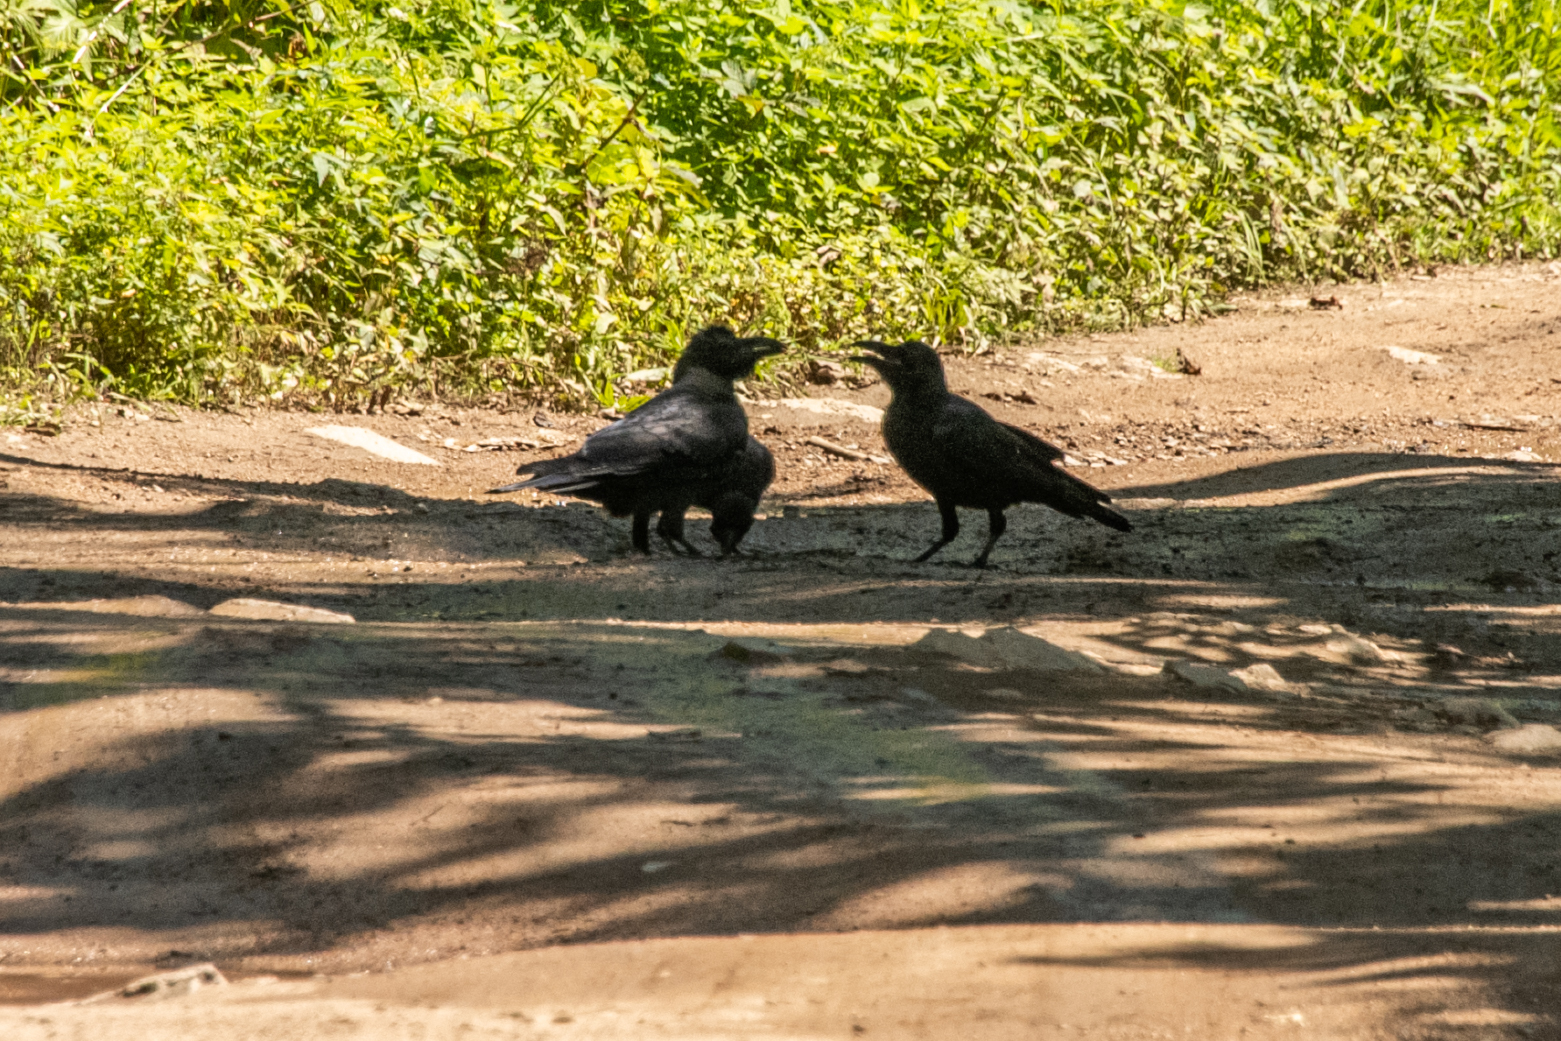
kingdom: Animalia
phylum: Chordata
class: Aves
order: Passeriformes
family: Corvidae
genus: Corvus
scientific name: Corvus macrorhynchos
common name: Large-billed crow
